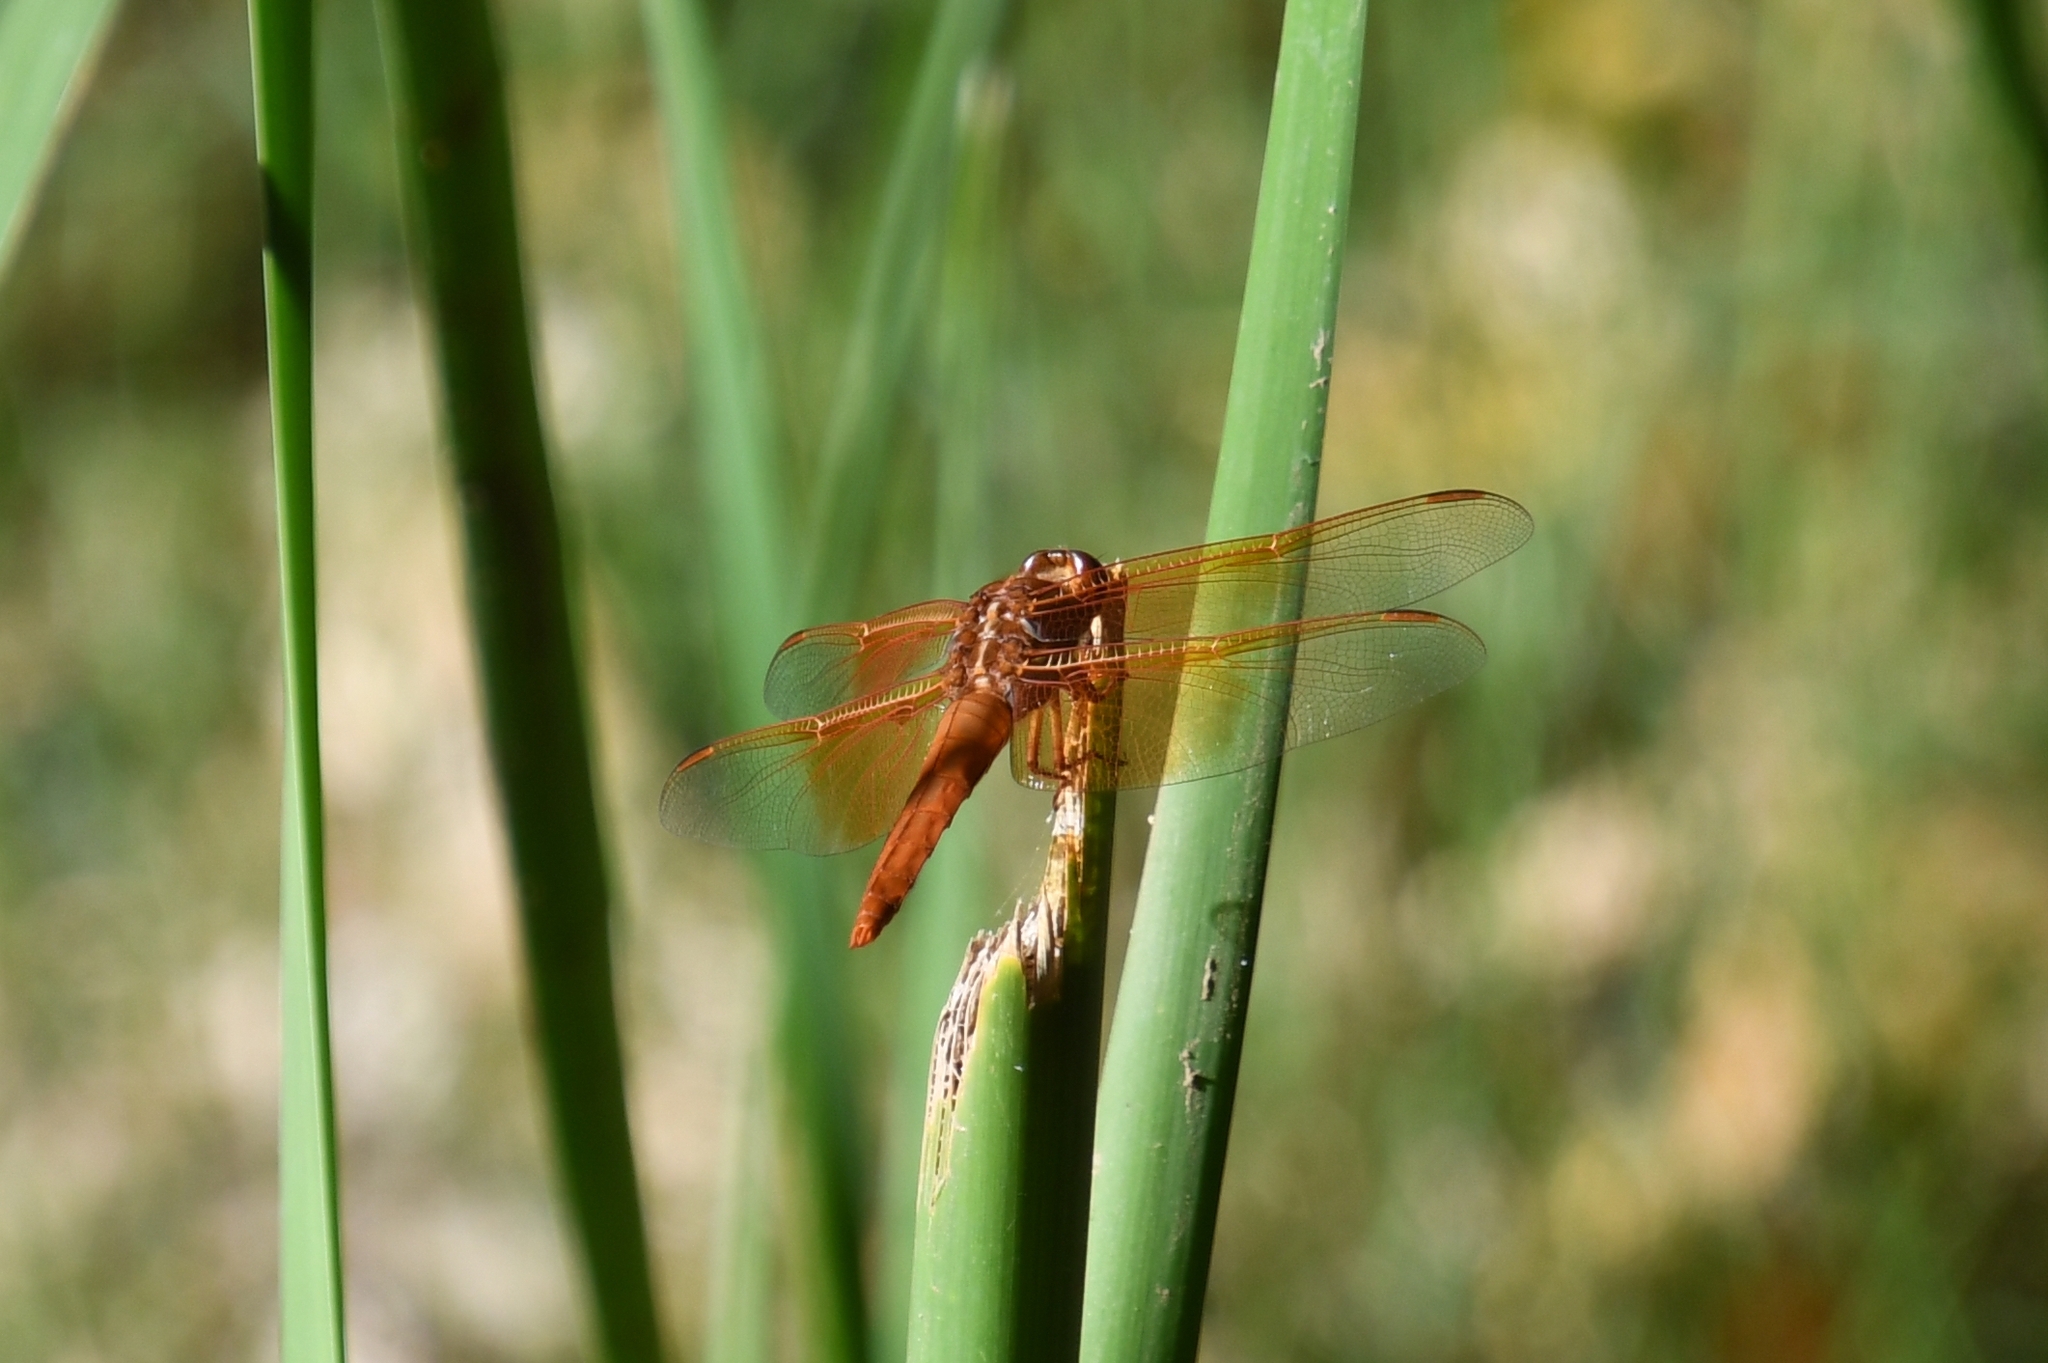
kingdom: Animalia
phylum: Arthropoda
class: Insecta
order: Odonata
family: Libellulidae
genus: Libellula
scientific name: Libellula saturata
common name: Flame skimmer
